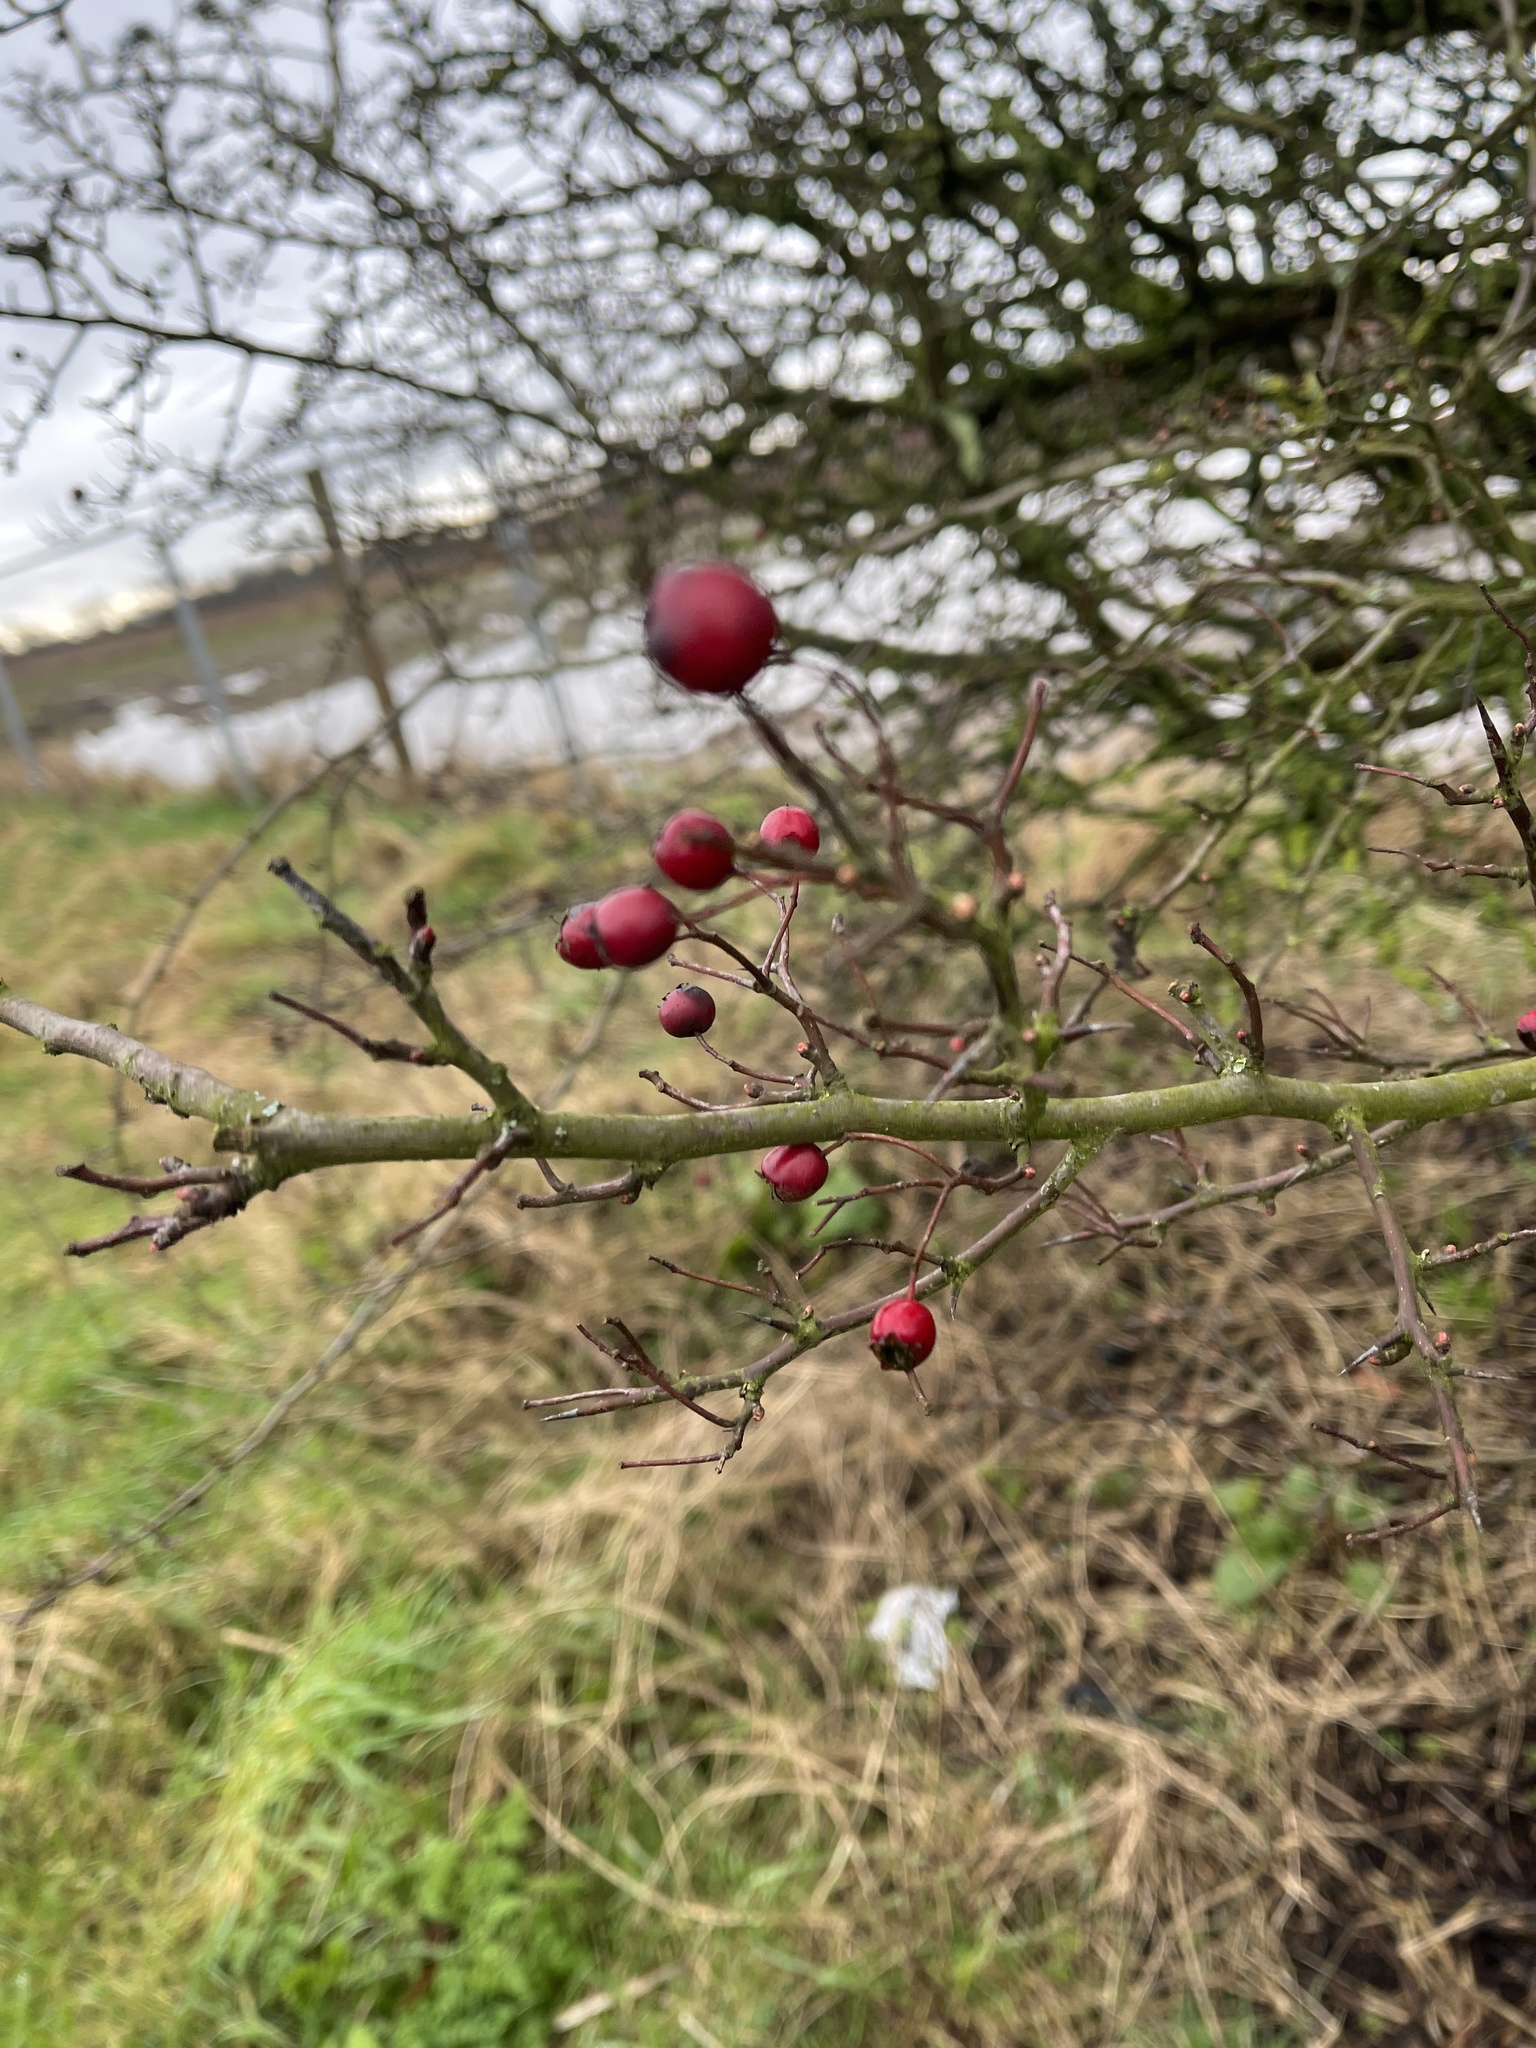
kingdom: Plantae
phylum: Tracheophyta
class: Magnoliopsida
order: Rosales
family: Rosaceae
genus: Crataegus
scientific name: Crataegus monogyna
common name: Hawthorn
